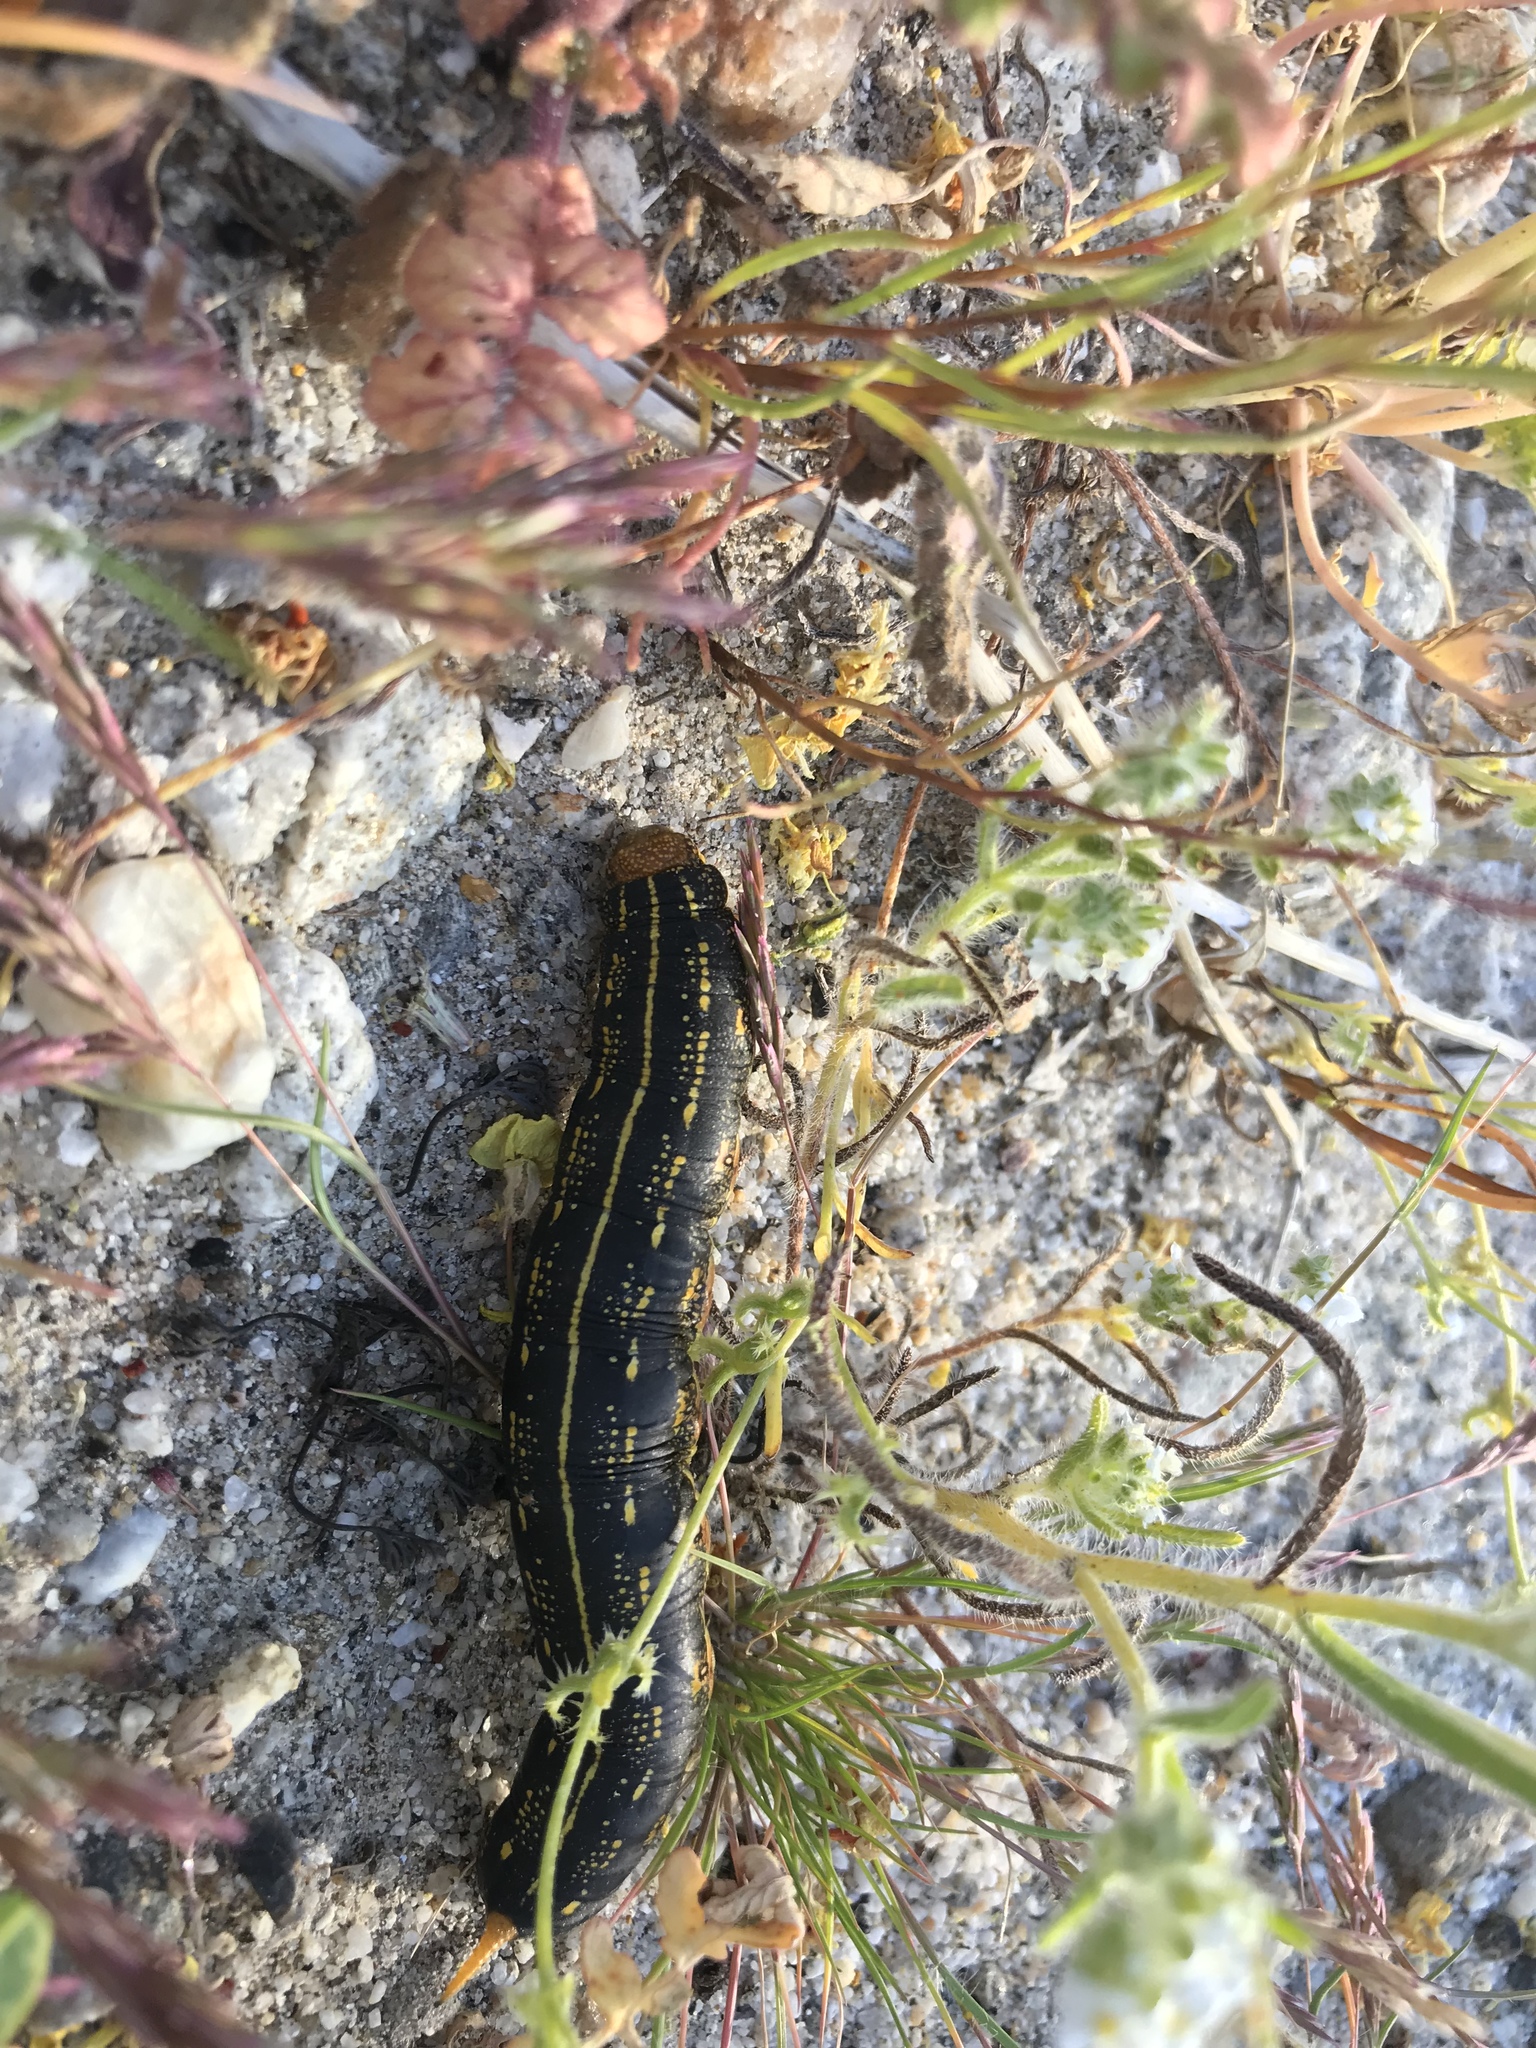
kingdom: Animalia
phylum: Arthropoda
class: Insecta
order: Lepidoptera
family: Sphingidae
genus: Hyles
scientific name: Hyles lineata
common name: White-lined sphinx
